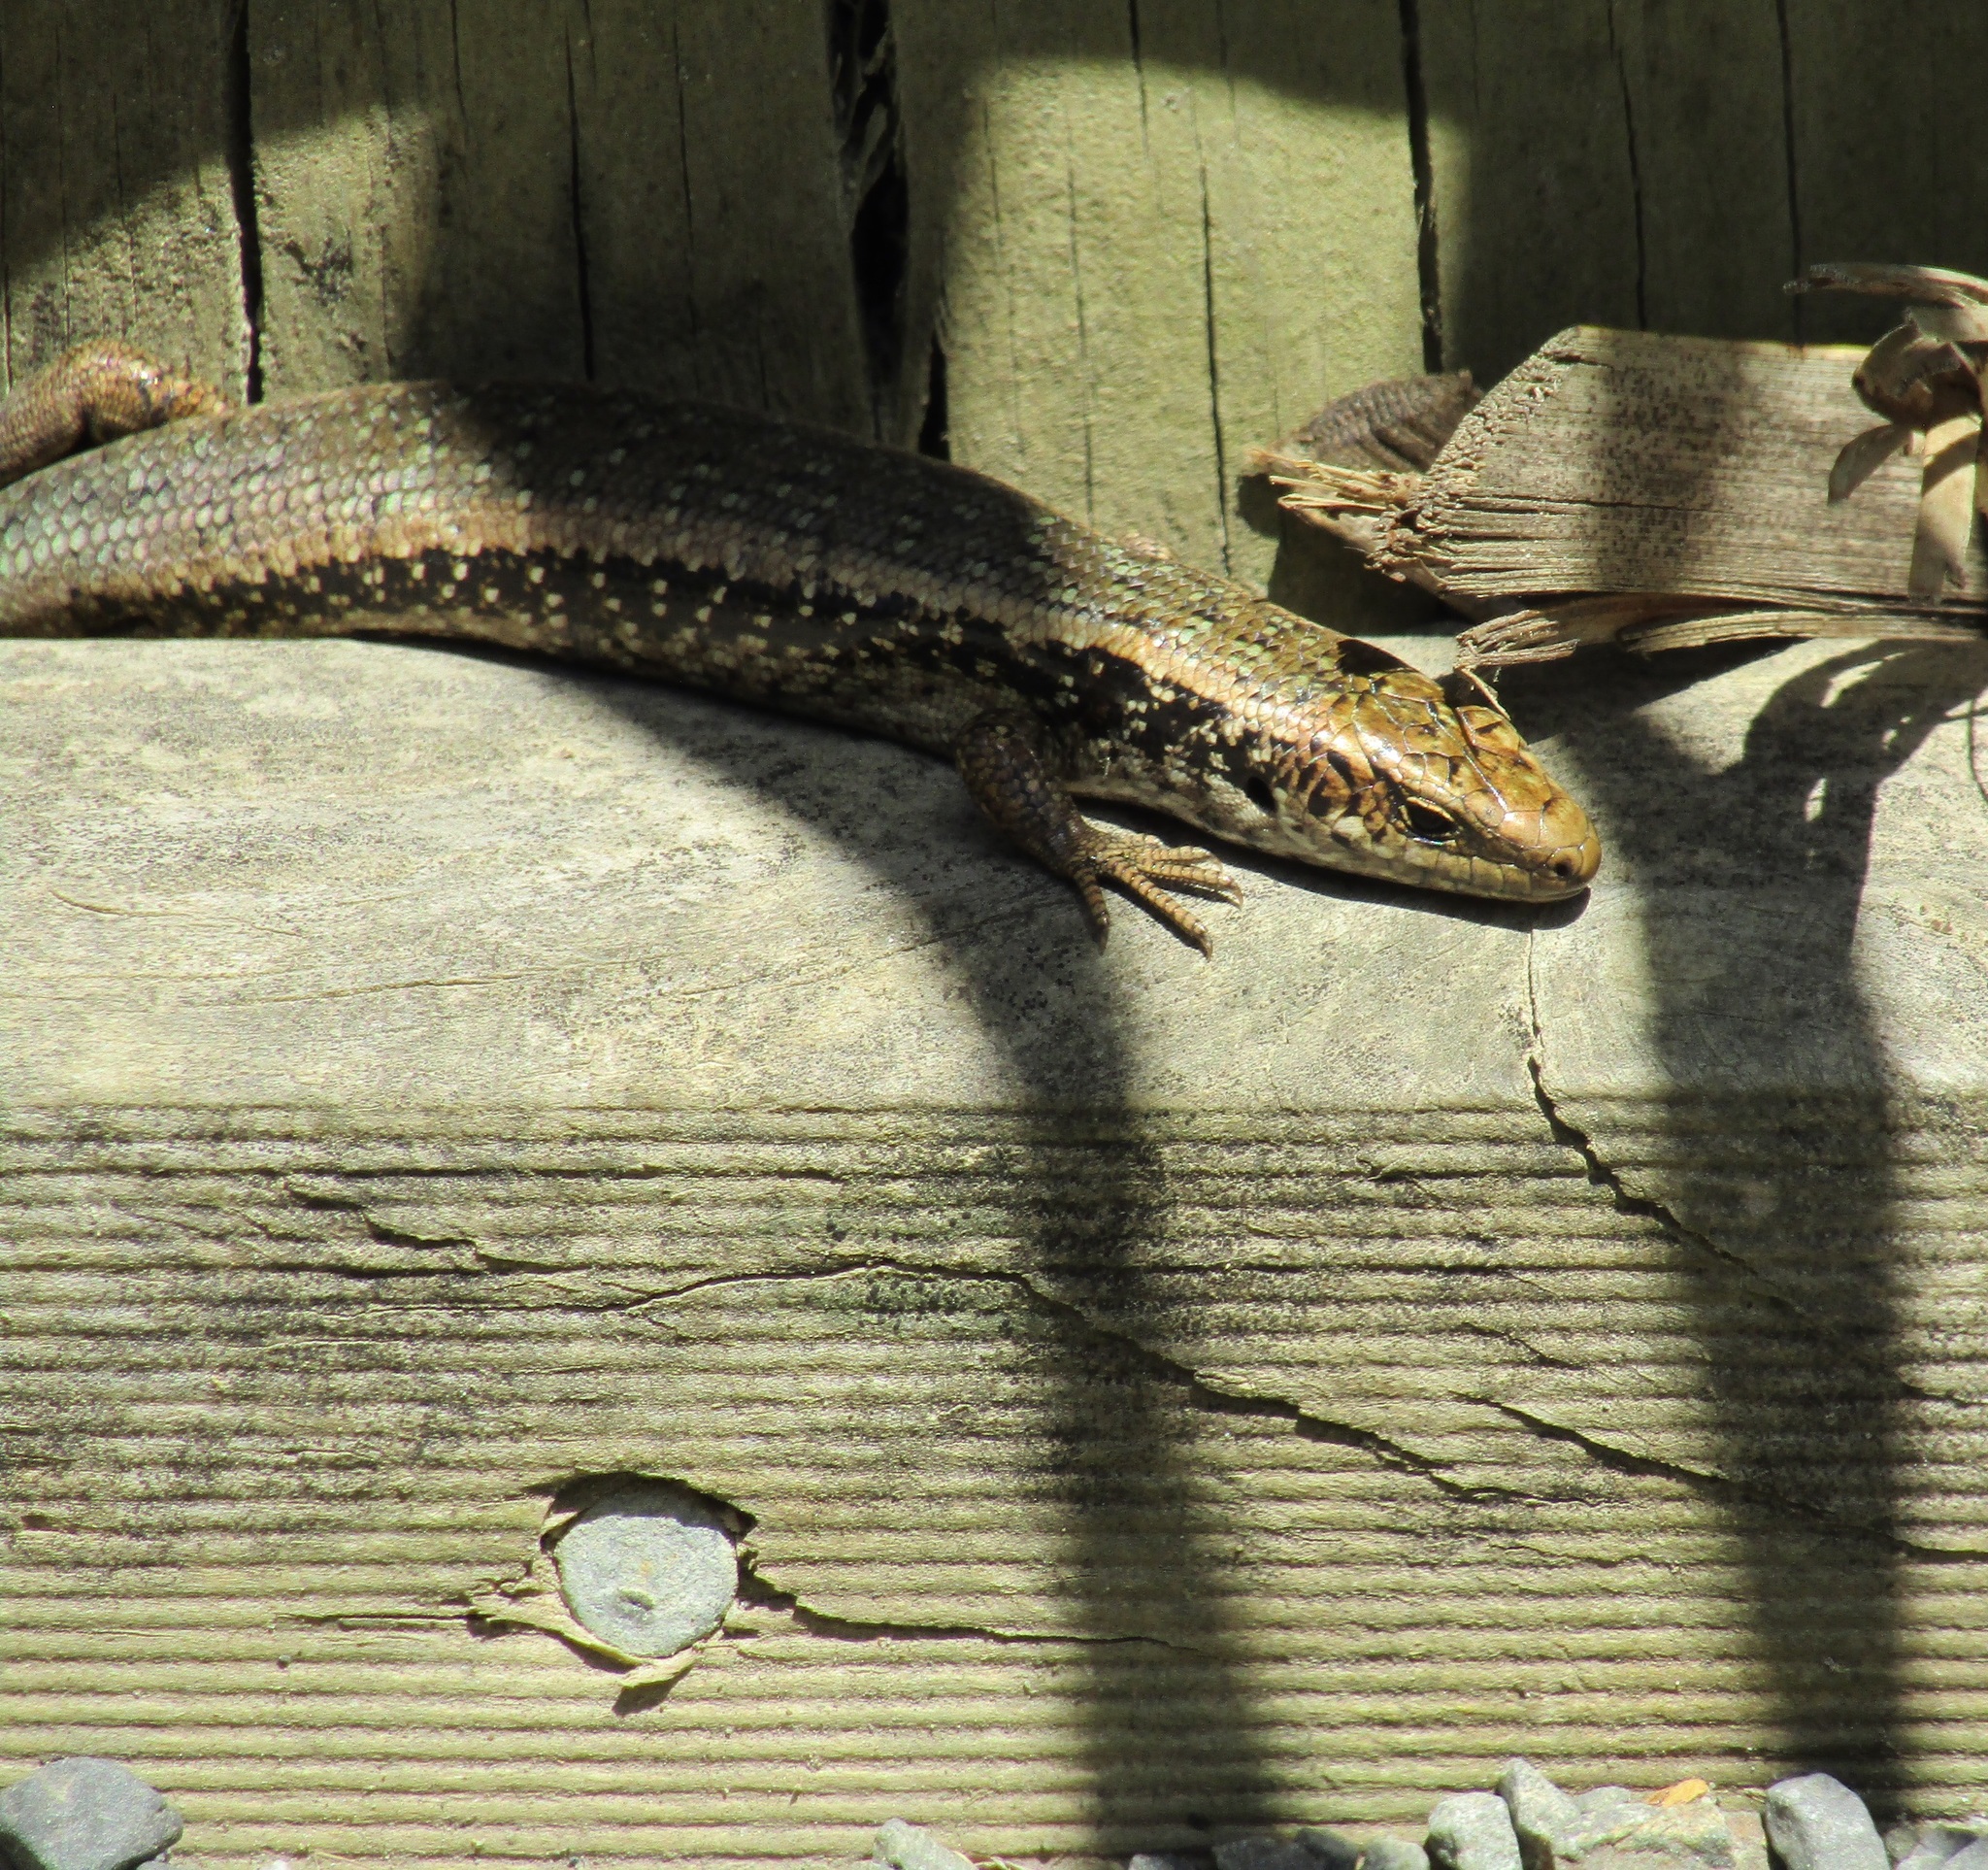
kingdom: Animalia
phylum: Chordata
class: Squamata
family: Scincidae
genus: Oligosoma
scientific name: Oligosoma kokowai
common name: Northern spotted skink
